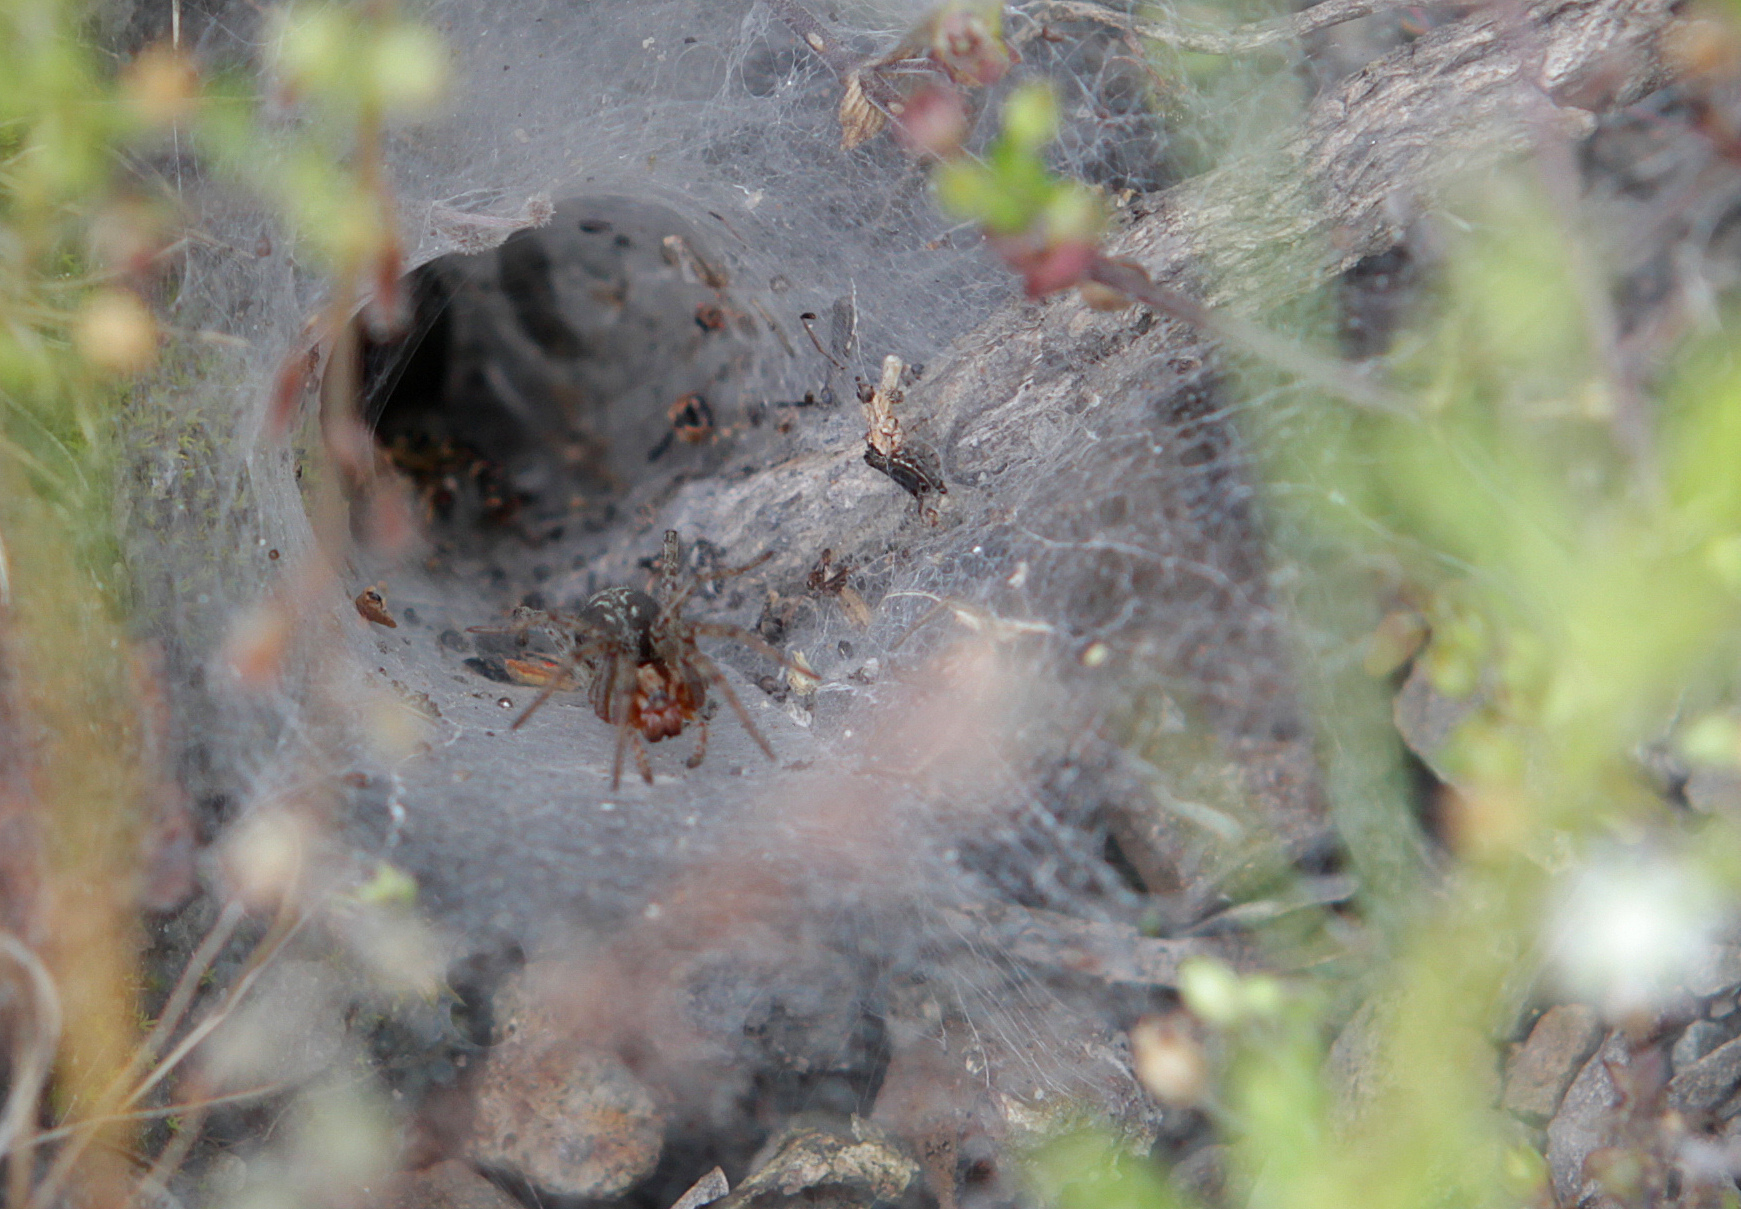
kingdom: Animalia
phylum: Arthropoda
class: Arachnida
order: Araneae
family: Agelenidae
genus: Agelena
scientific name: Agelena labyrinthica
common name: Labyrinth spider
